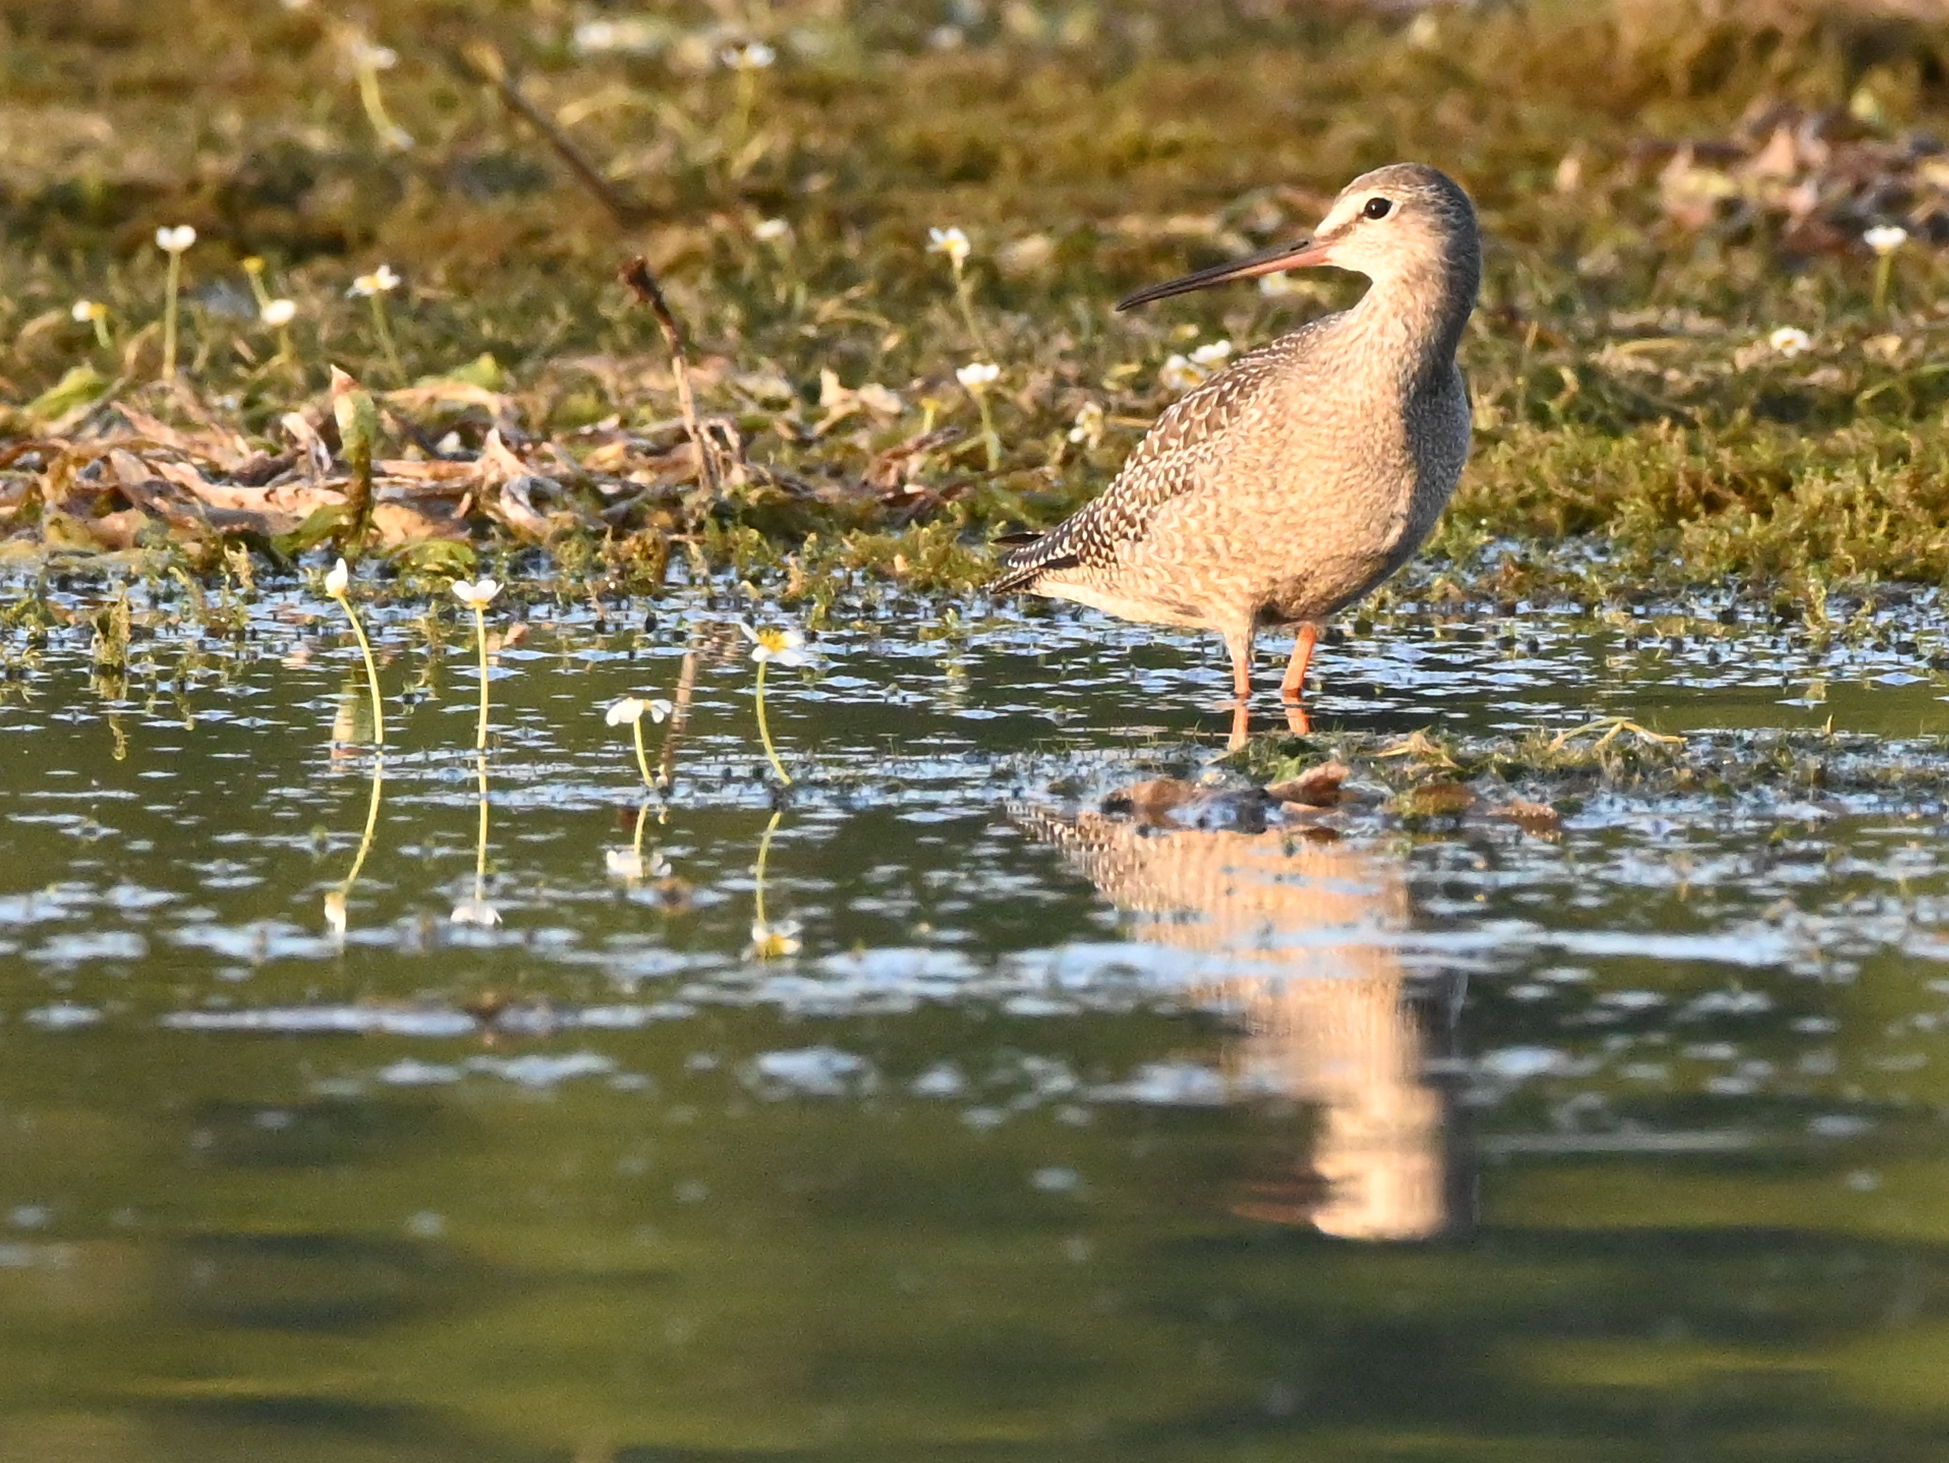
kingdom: Animalia
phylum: Chordata
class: Aves
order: Charadriiformes
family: Scolopacidae
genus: Tringa
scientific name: Tringa erythropus
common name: Spotted redshank
